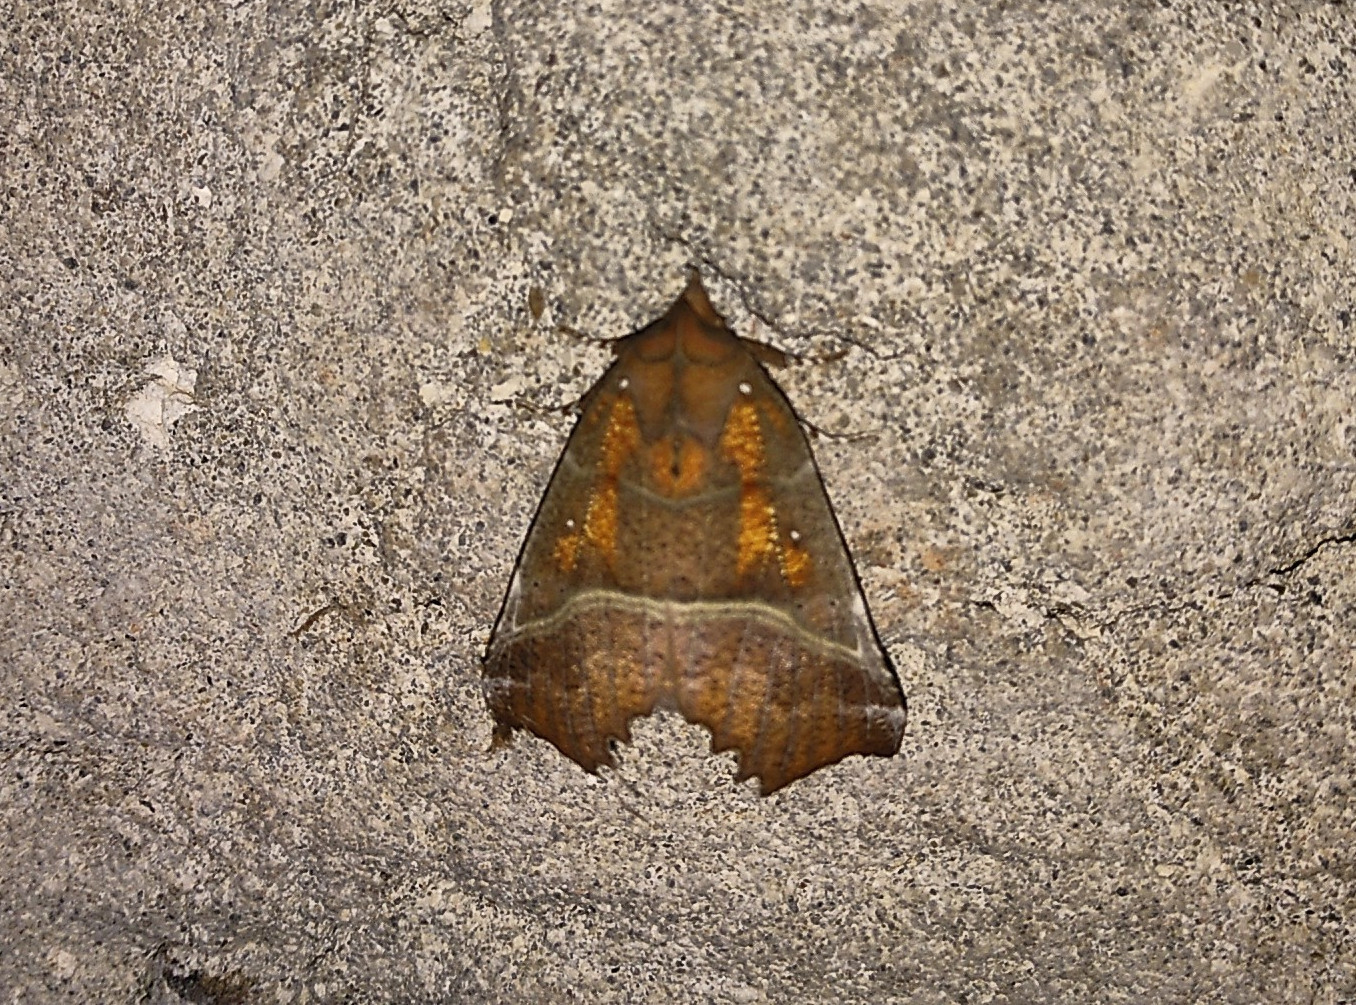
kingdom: Animalia
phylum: Arthropoda
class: Insecta
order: Lepidoptera
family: Erebidae
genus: Scoliopteryx
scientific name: Scoliopteryx libatrix
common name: Herald
